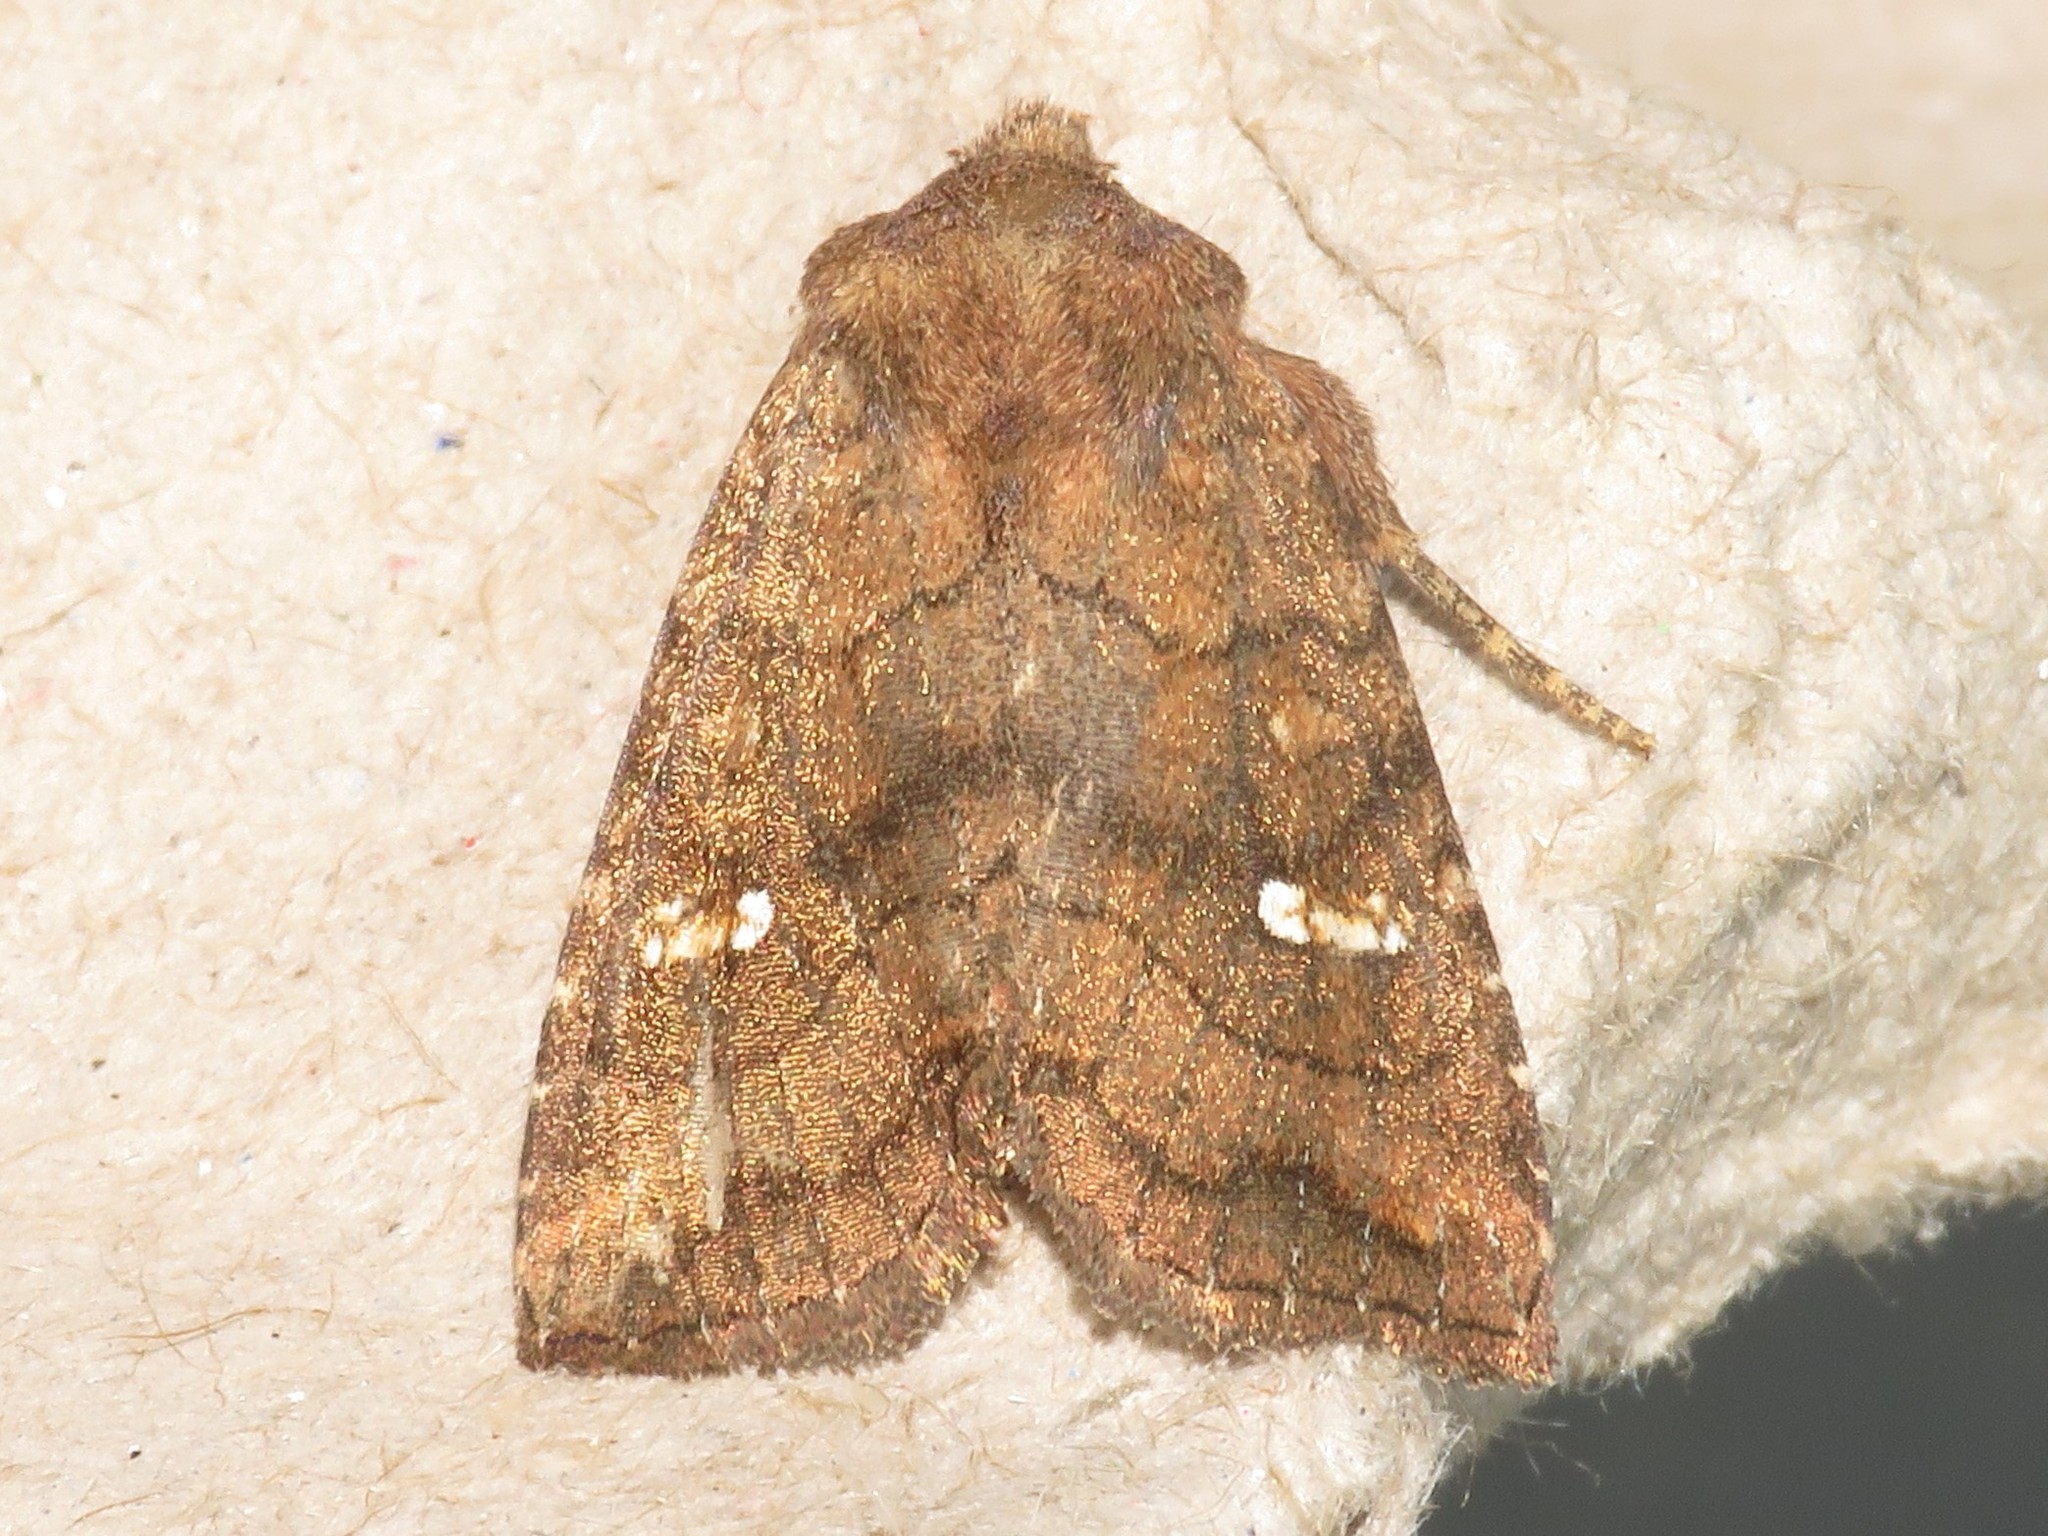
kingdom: Animalia
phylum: Arthropoda
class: Insecta
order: Lepidoptera
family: Noctuidae
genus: Tricholita
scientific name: Tricholita signata
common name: Signate quaker
